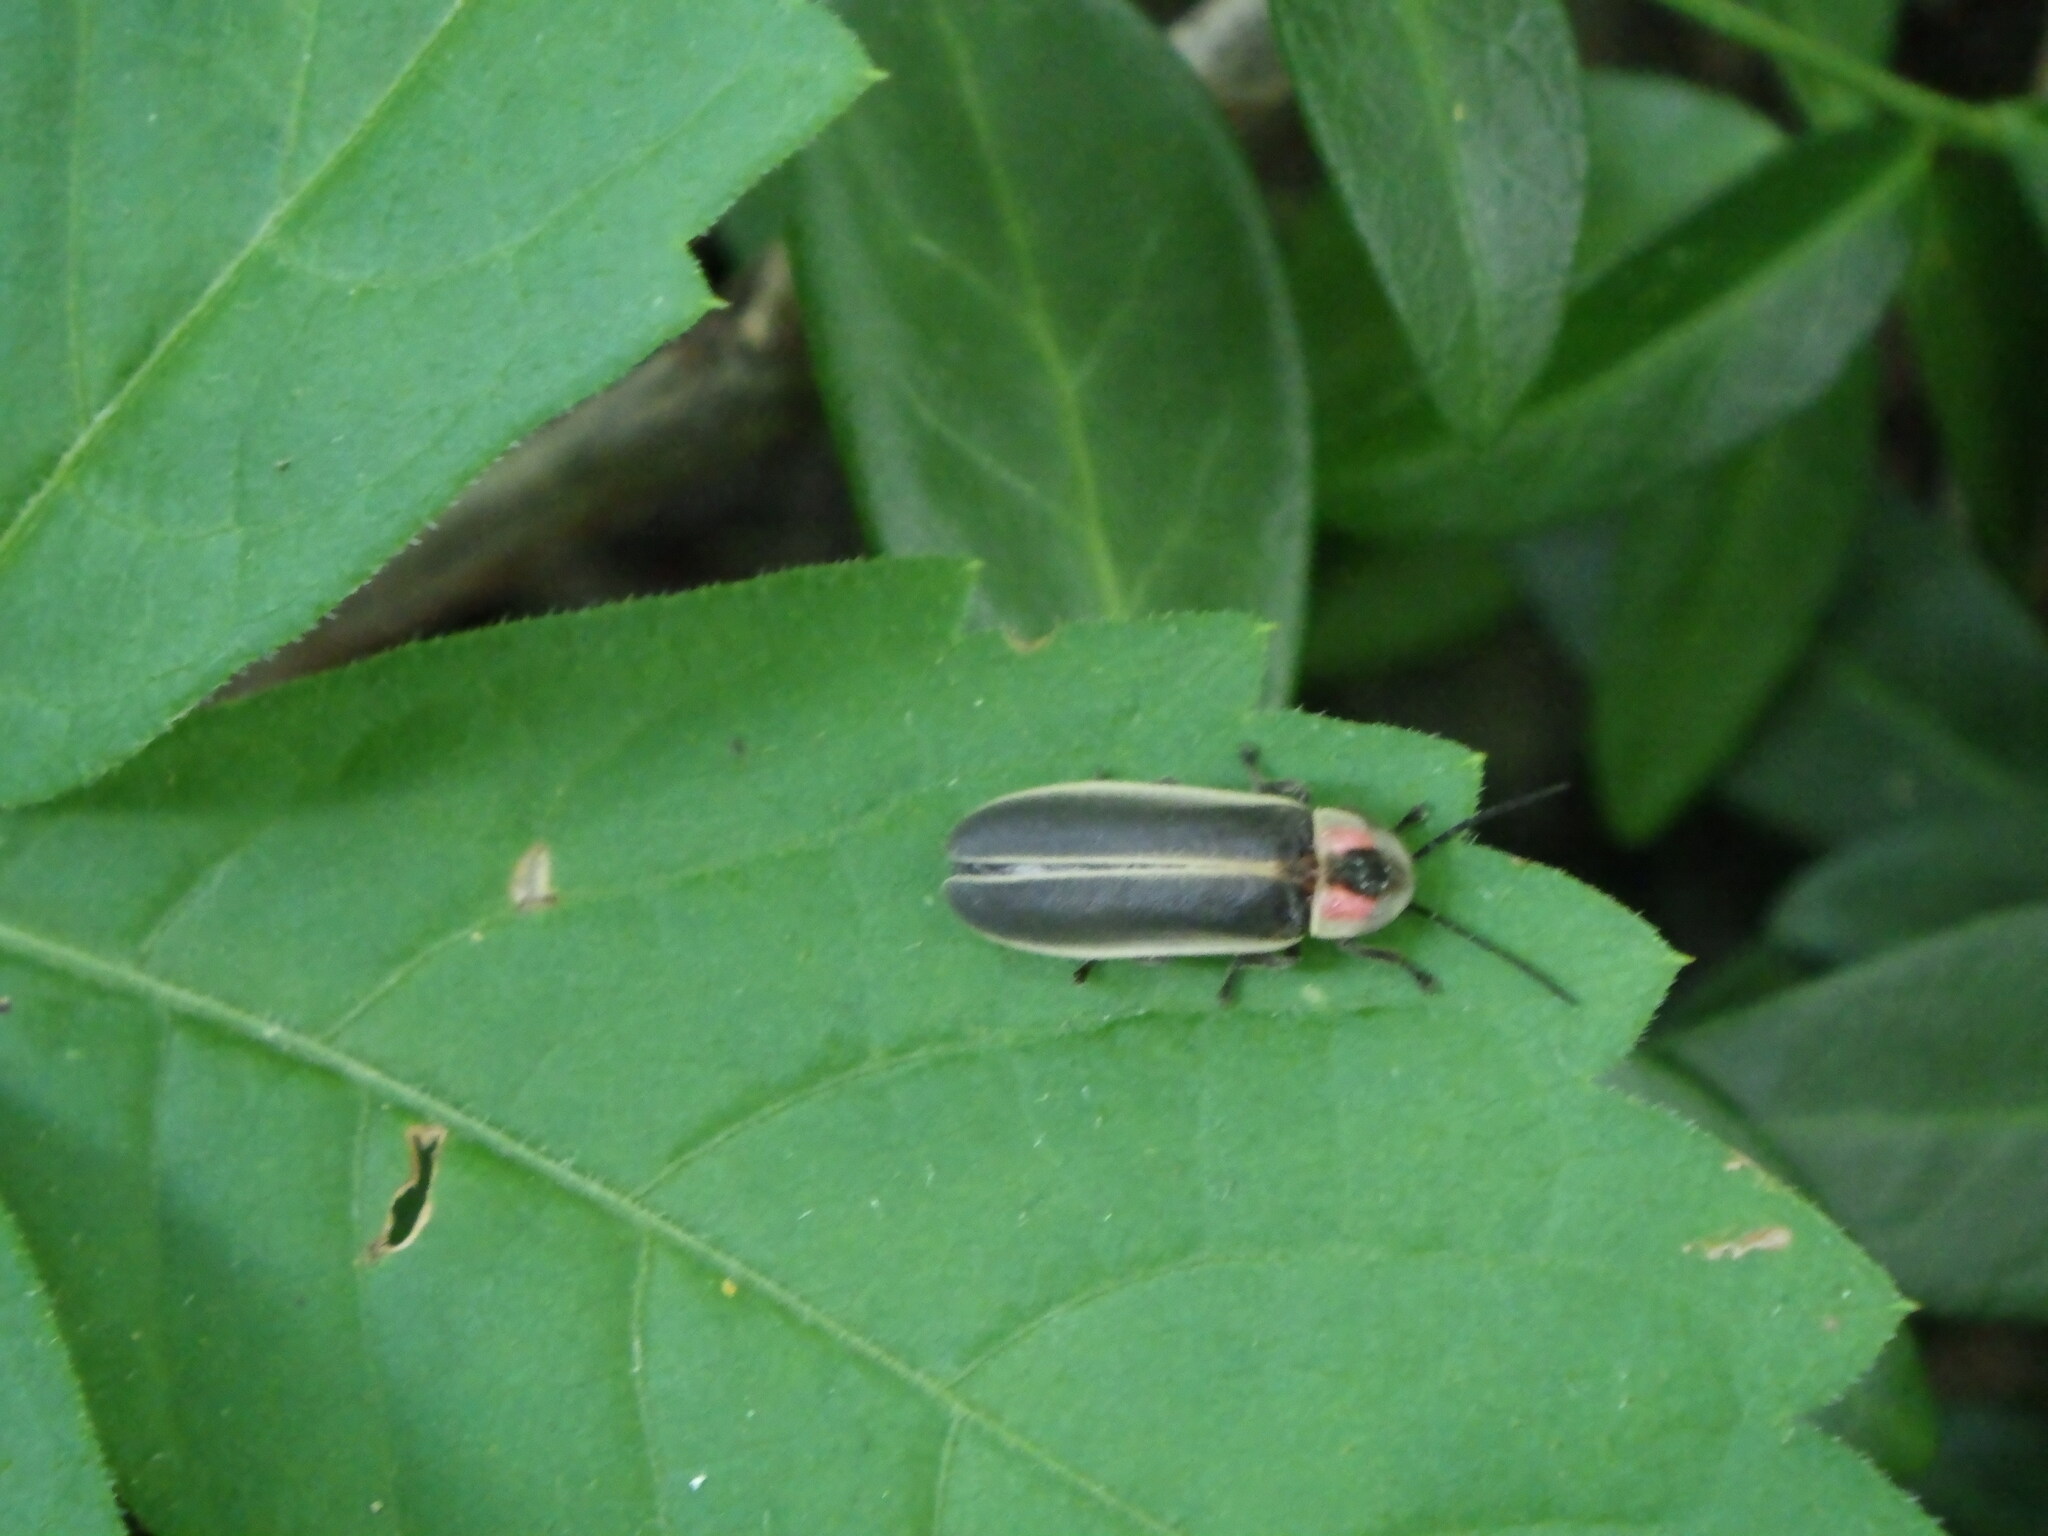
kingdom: Animalia
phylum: Arthropoda
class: Insecta
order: Coleoptera
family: Lampyridae
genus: Photinus
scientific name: Photinus pyralis
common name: Big dipper firefly
